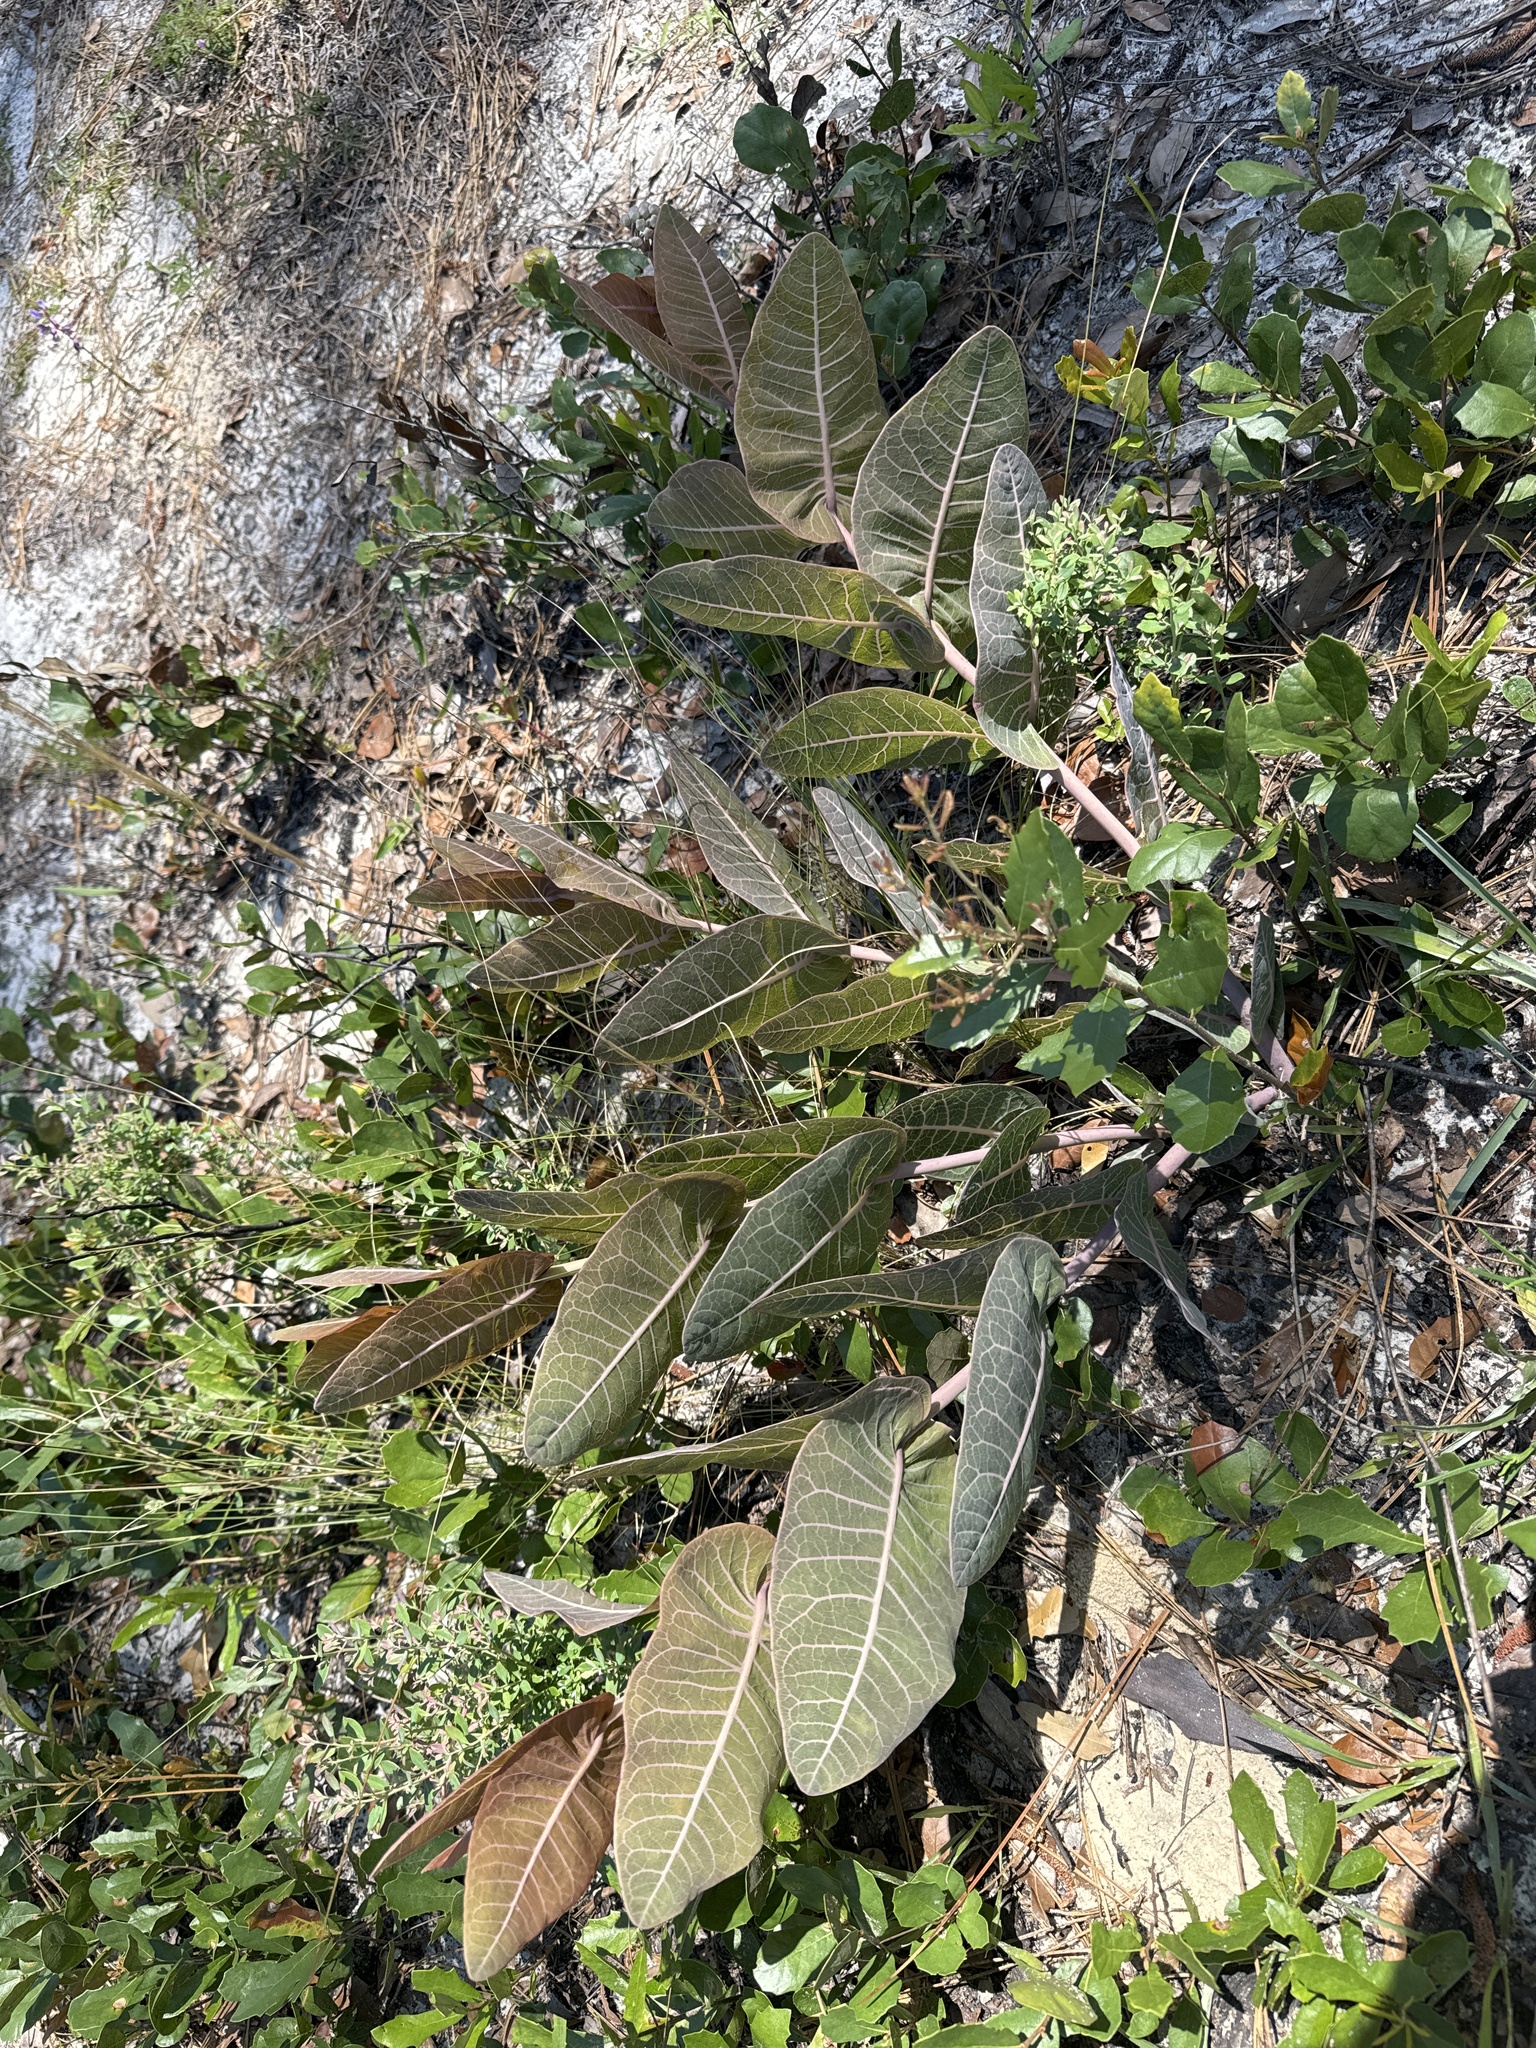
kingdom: Plantae
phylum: Tracheophyta
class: Magnoliopsida
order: Gentianales
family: Apocynaceae
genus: Asclepias
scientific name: Asclepias humistrata
